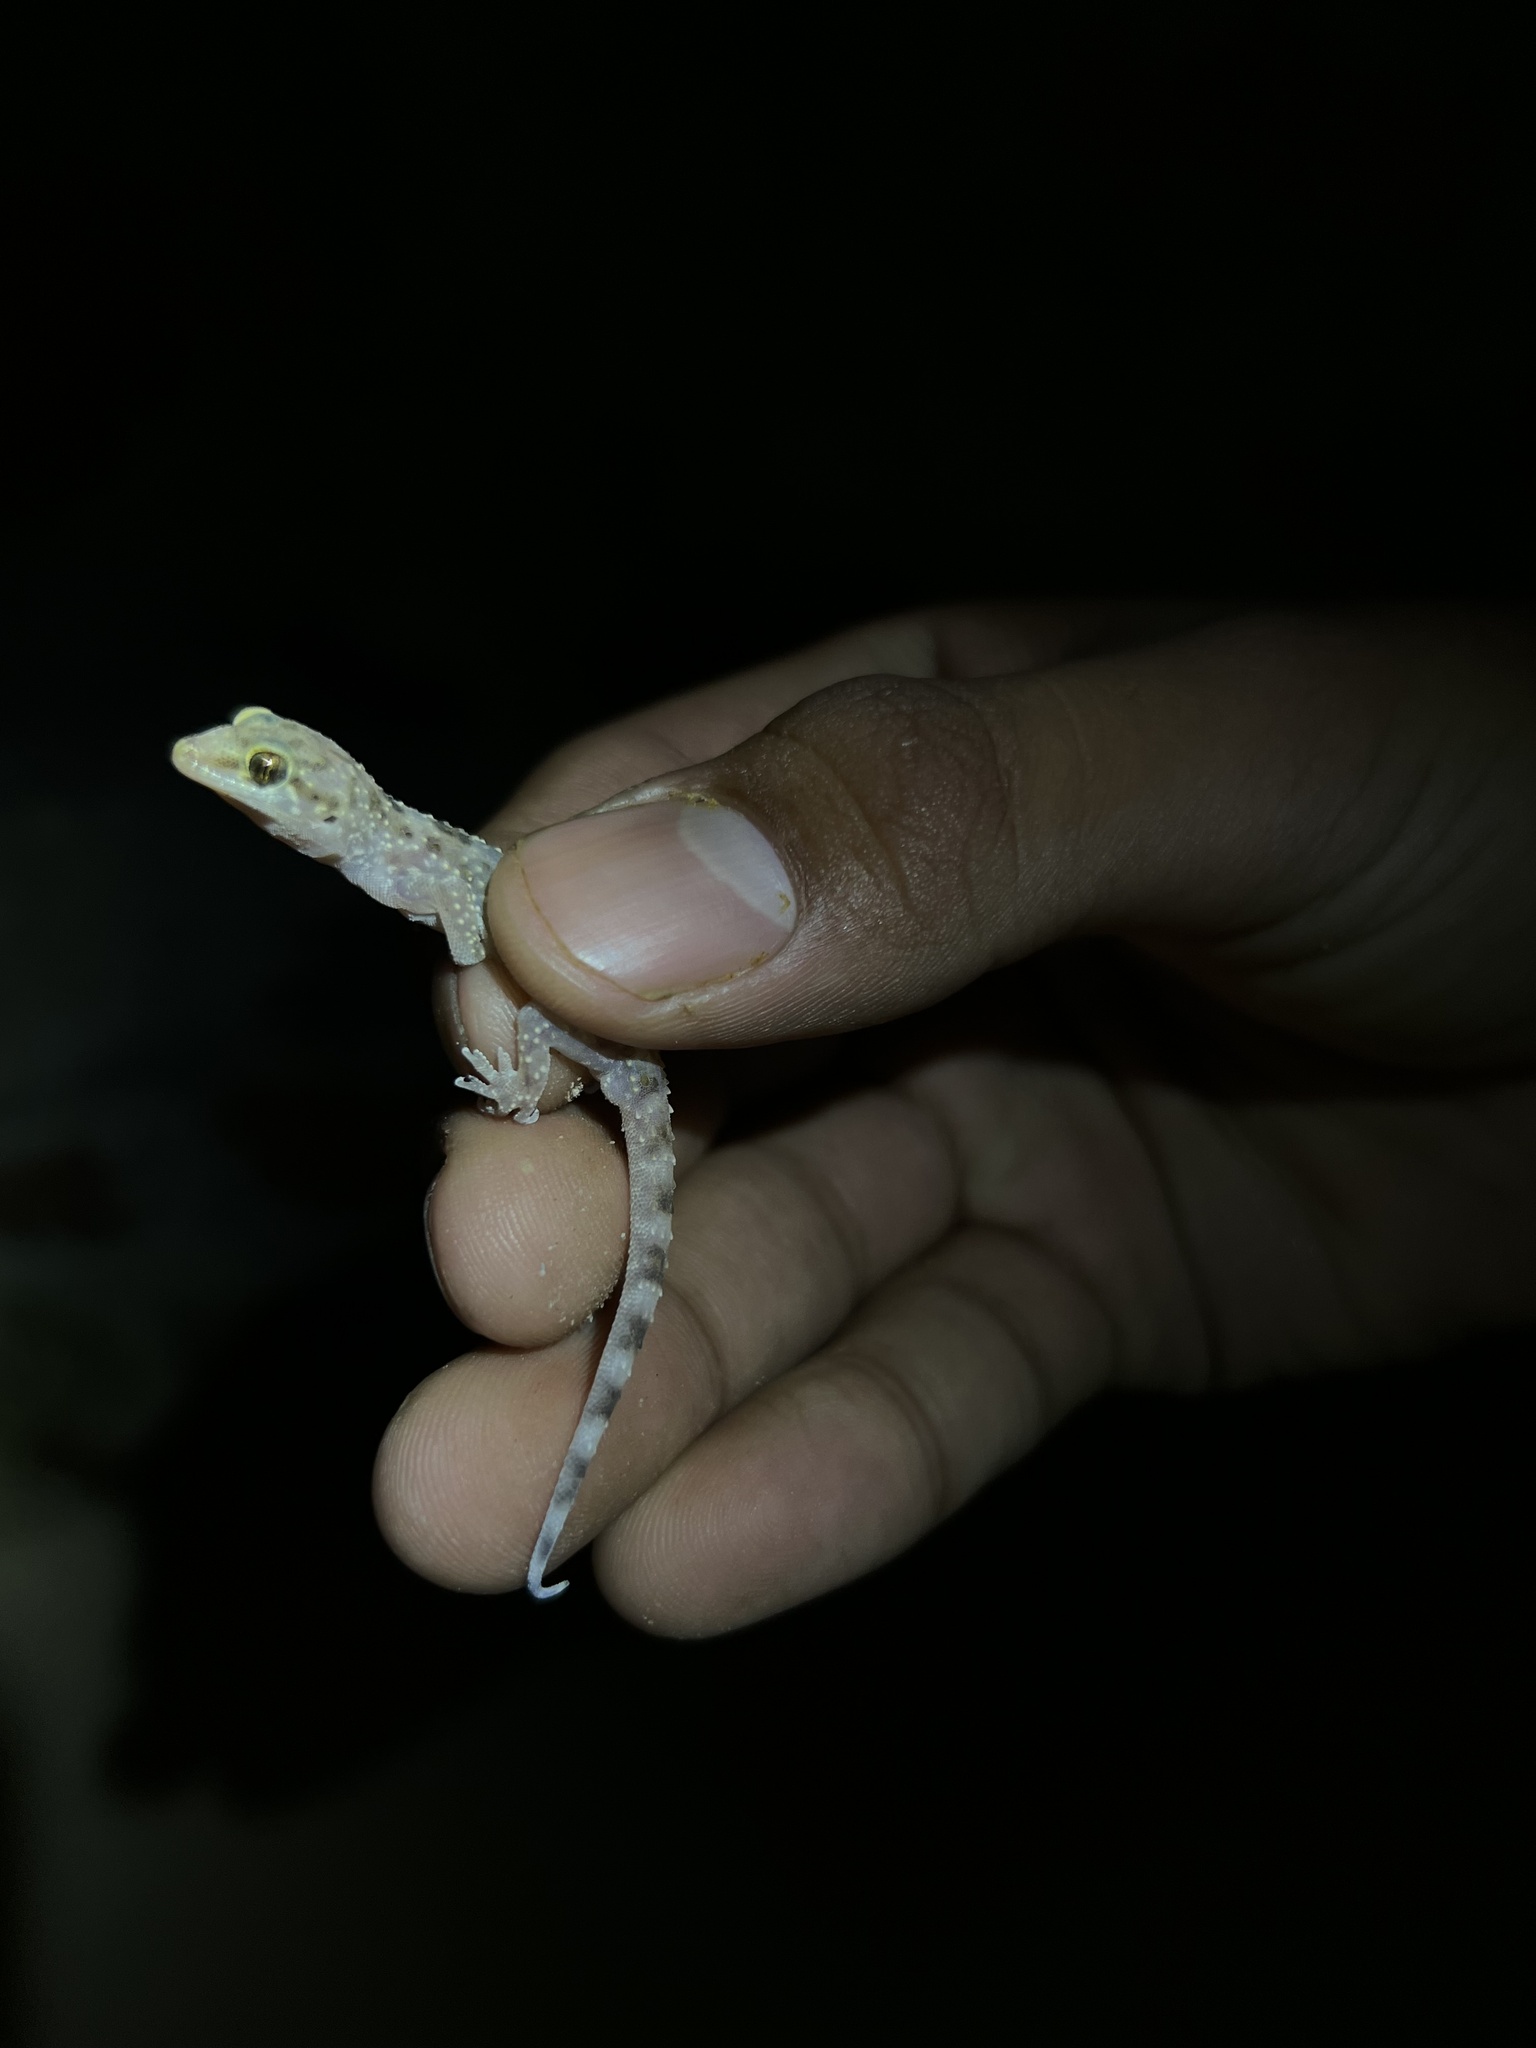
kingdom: Animalia
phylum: Chordata
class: Squamata
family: Gekkonidae
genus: Hemidactylus
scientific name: Hemidactylus turcicus
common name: Turkish gecko
